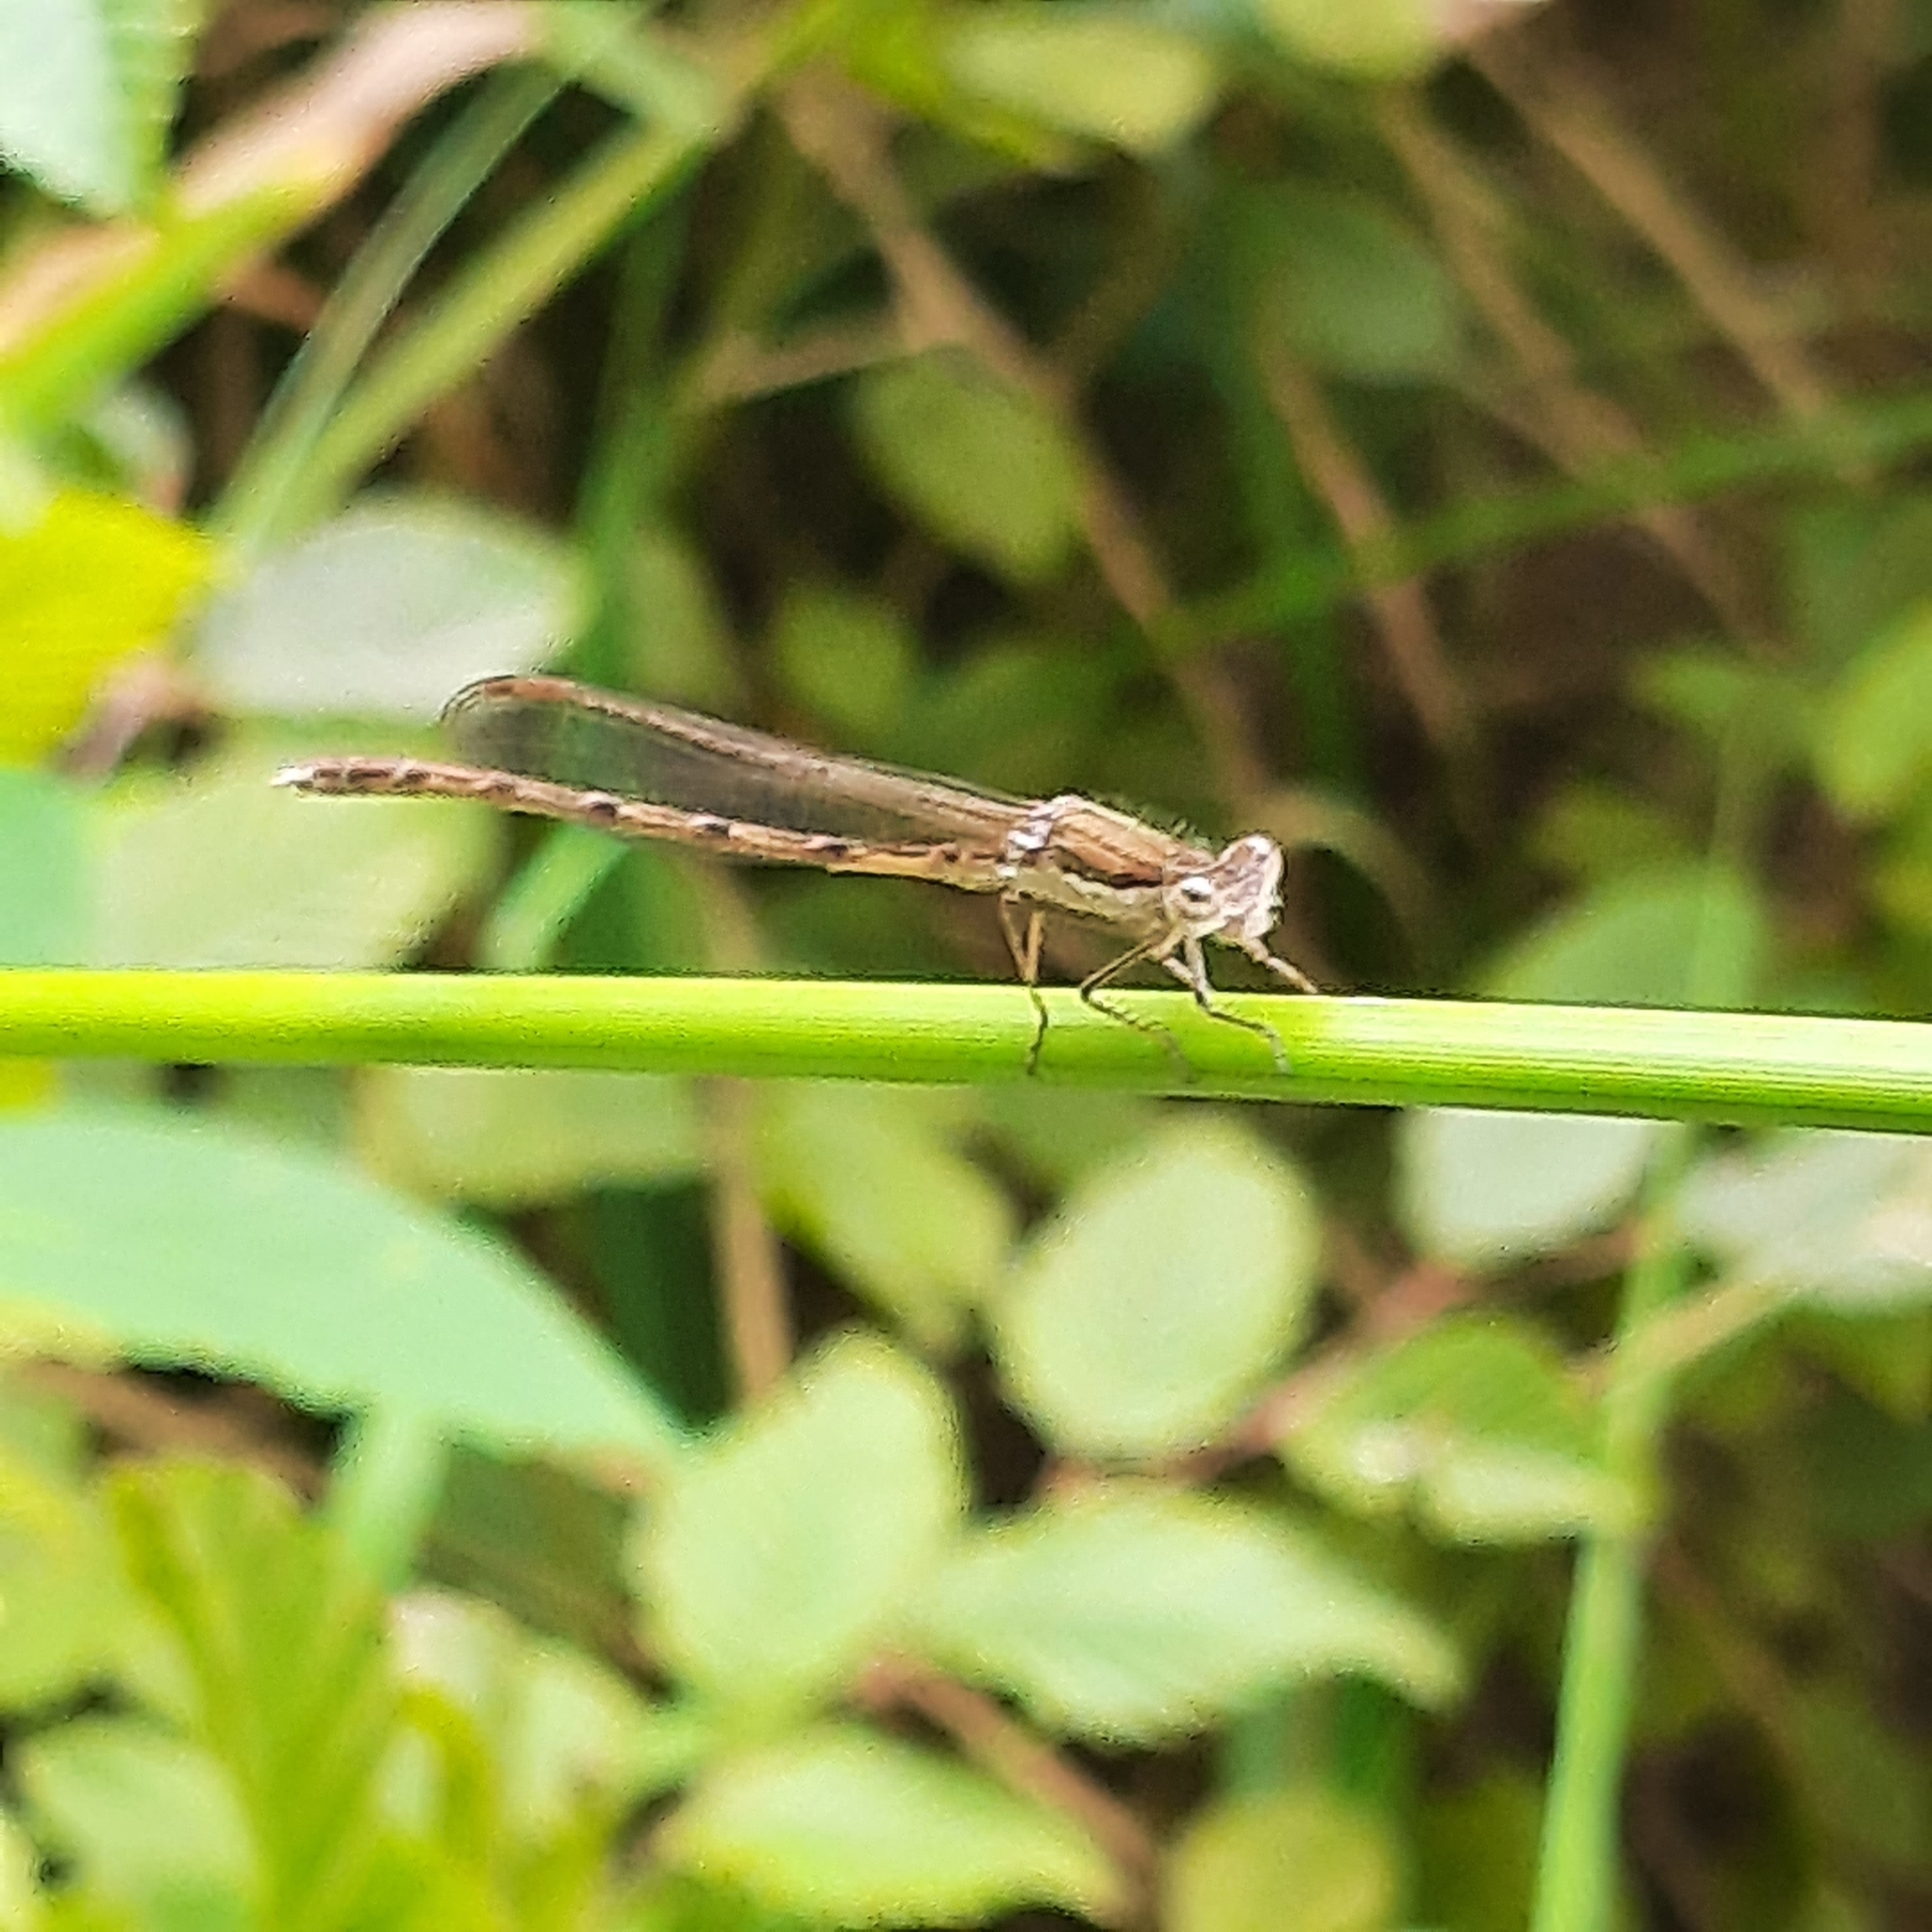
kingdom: Animalia
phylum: Arthropoda
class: Insecta
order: Odonata
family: Lestidae
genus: Sympecma
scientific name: Sympecma fusca
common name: Common winter damsel
